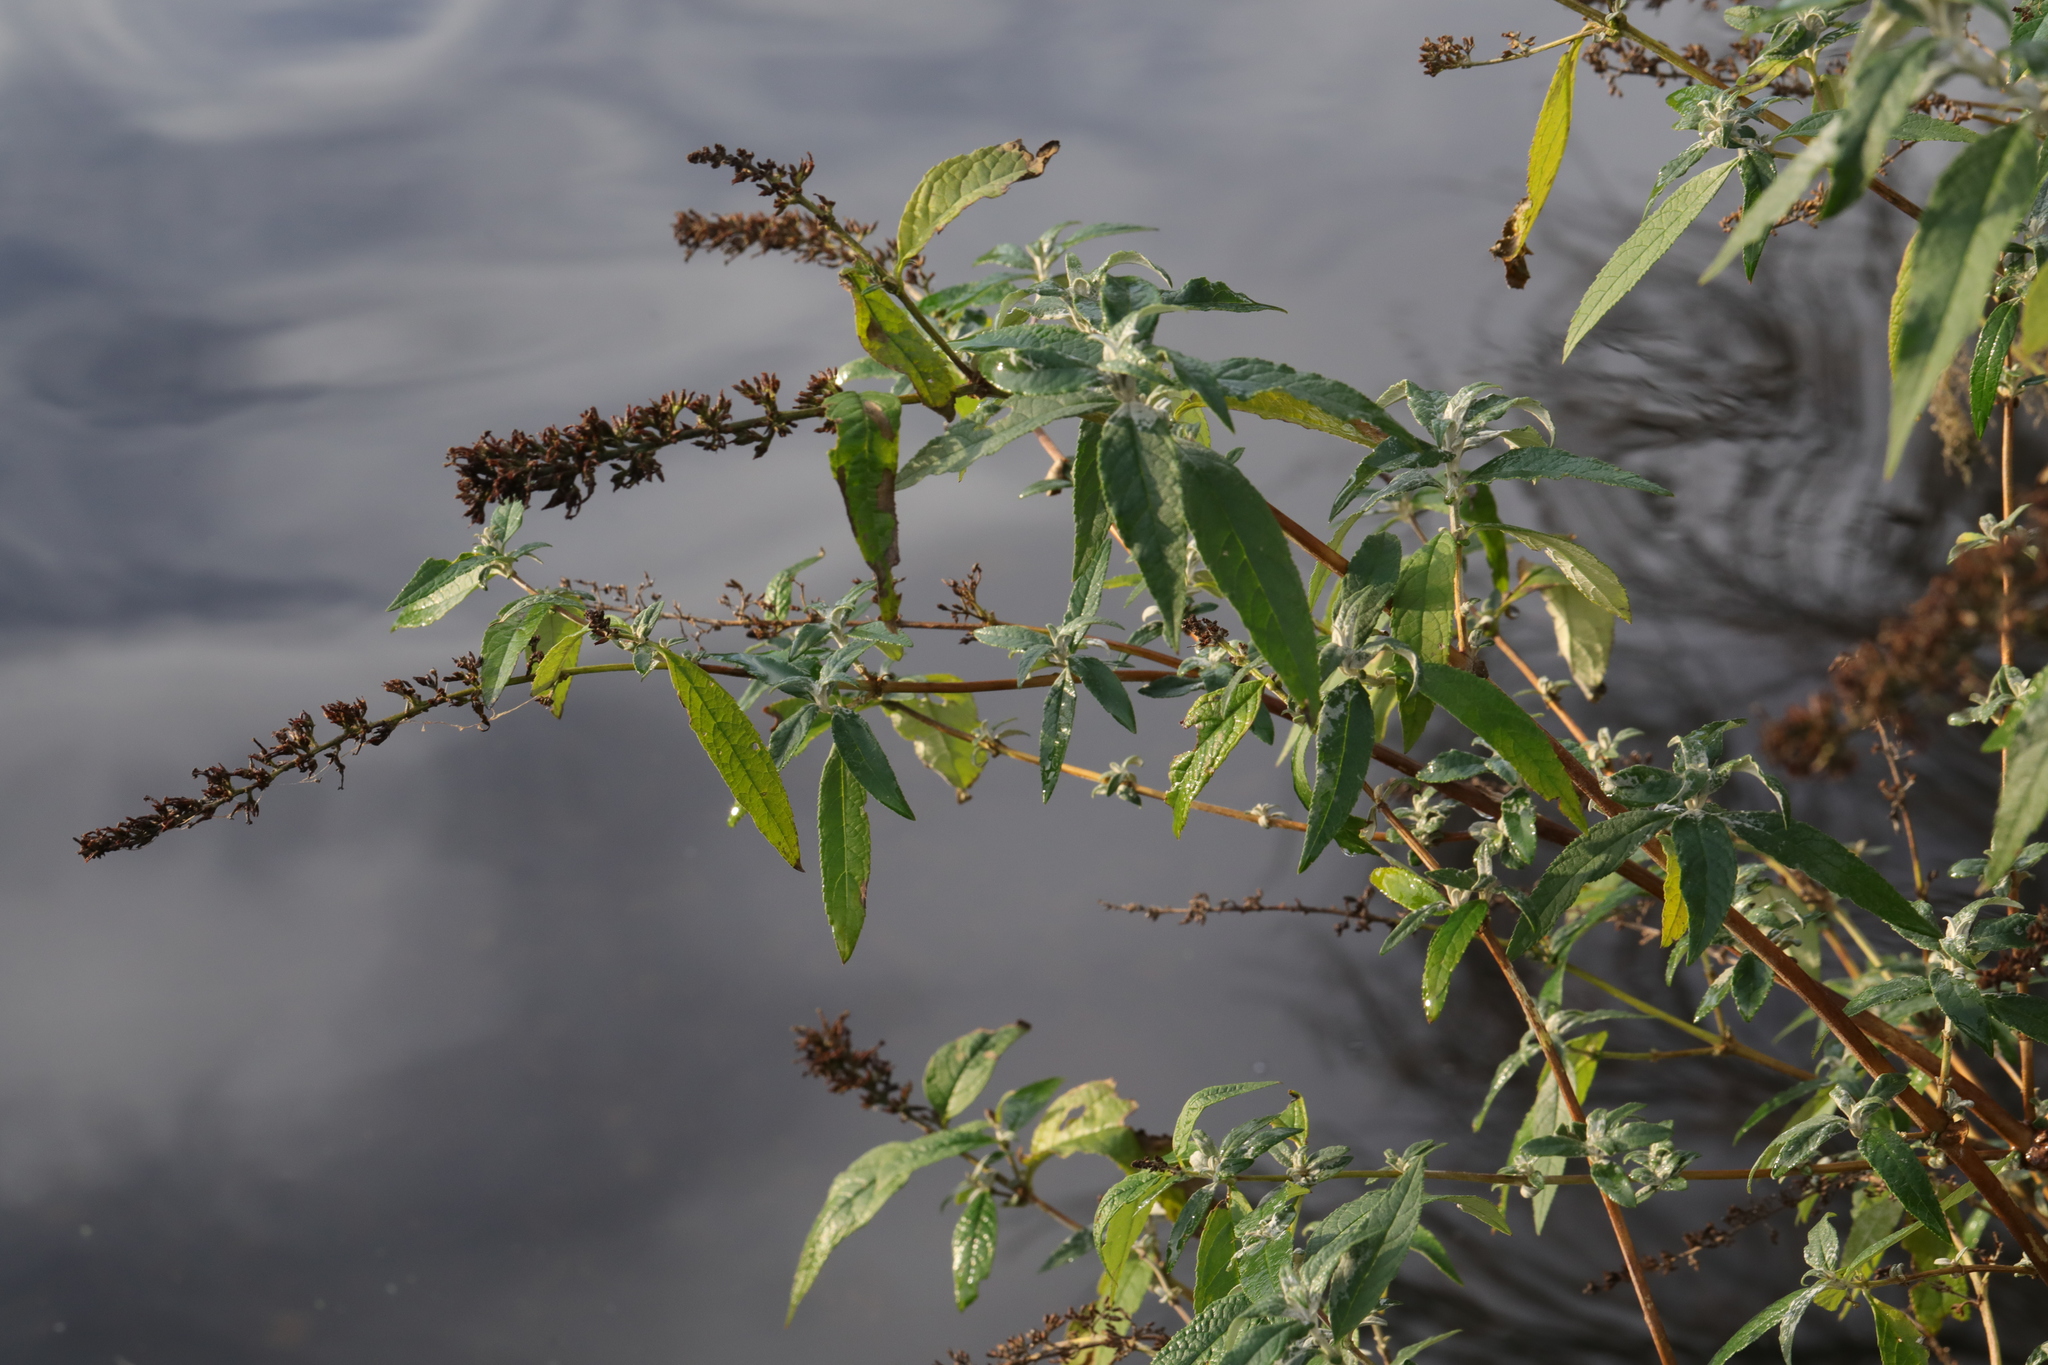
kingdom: Plantae
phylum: Tracheophyta
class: Magnoliopsida
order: Lamiales
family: Scrophulariaceae
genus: Buddleja
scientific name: Buddleja davidii
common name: Butterfly-bush
